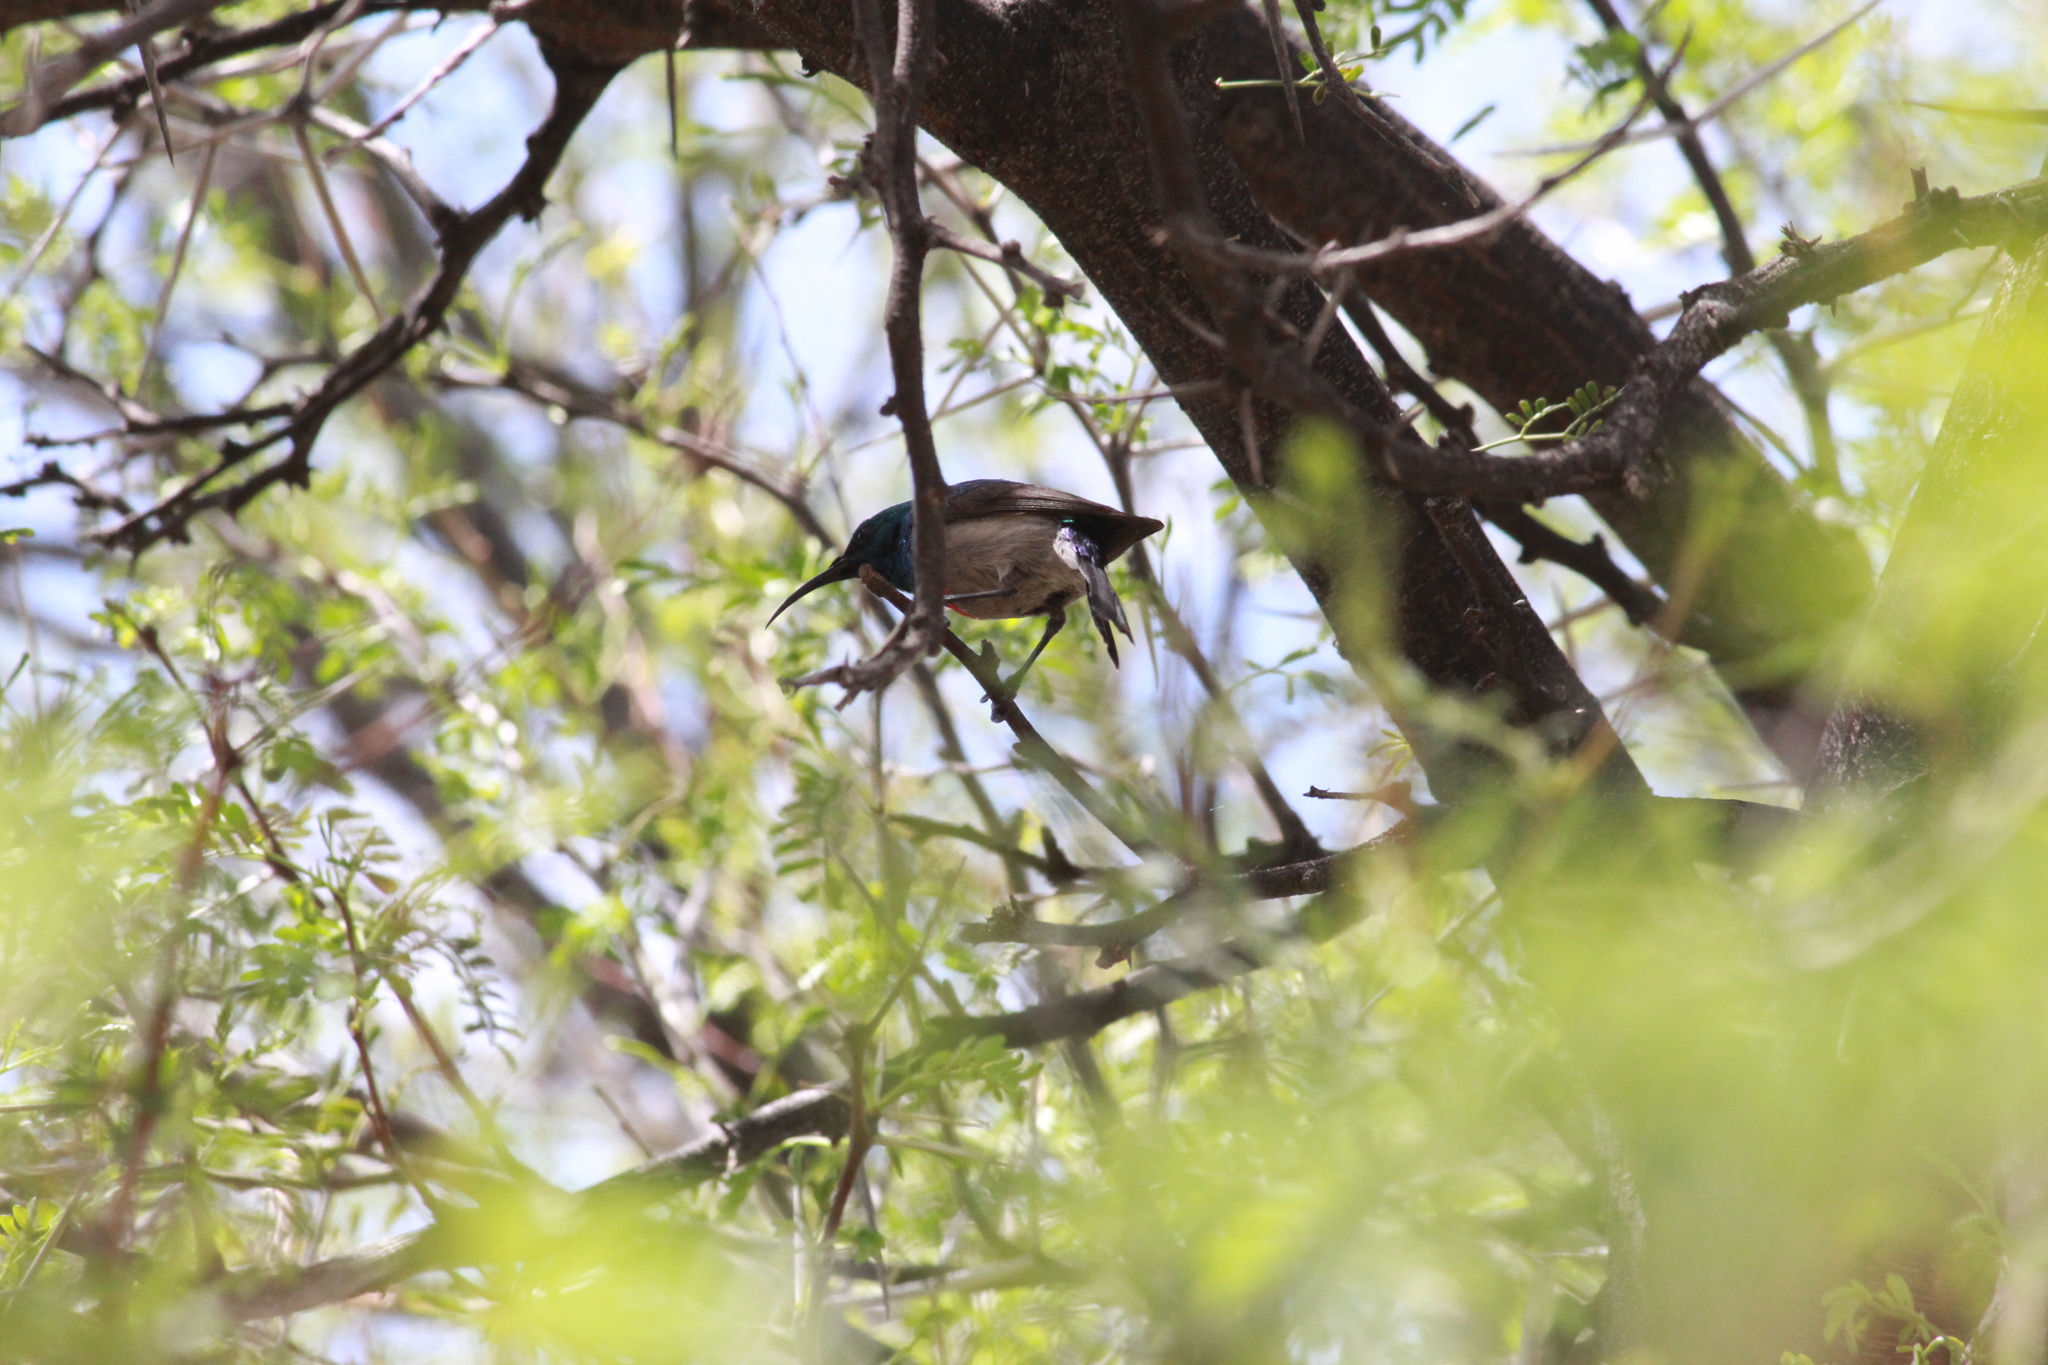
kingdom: Animalia
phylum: Chordata
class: Aves
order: Passeriformes
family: Nectariniidae
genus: Cinnyris
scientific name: Cinnyris chalybeus
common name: Southern double-collared sunbird
